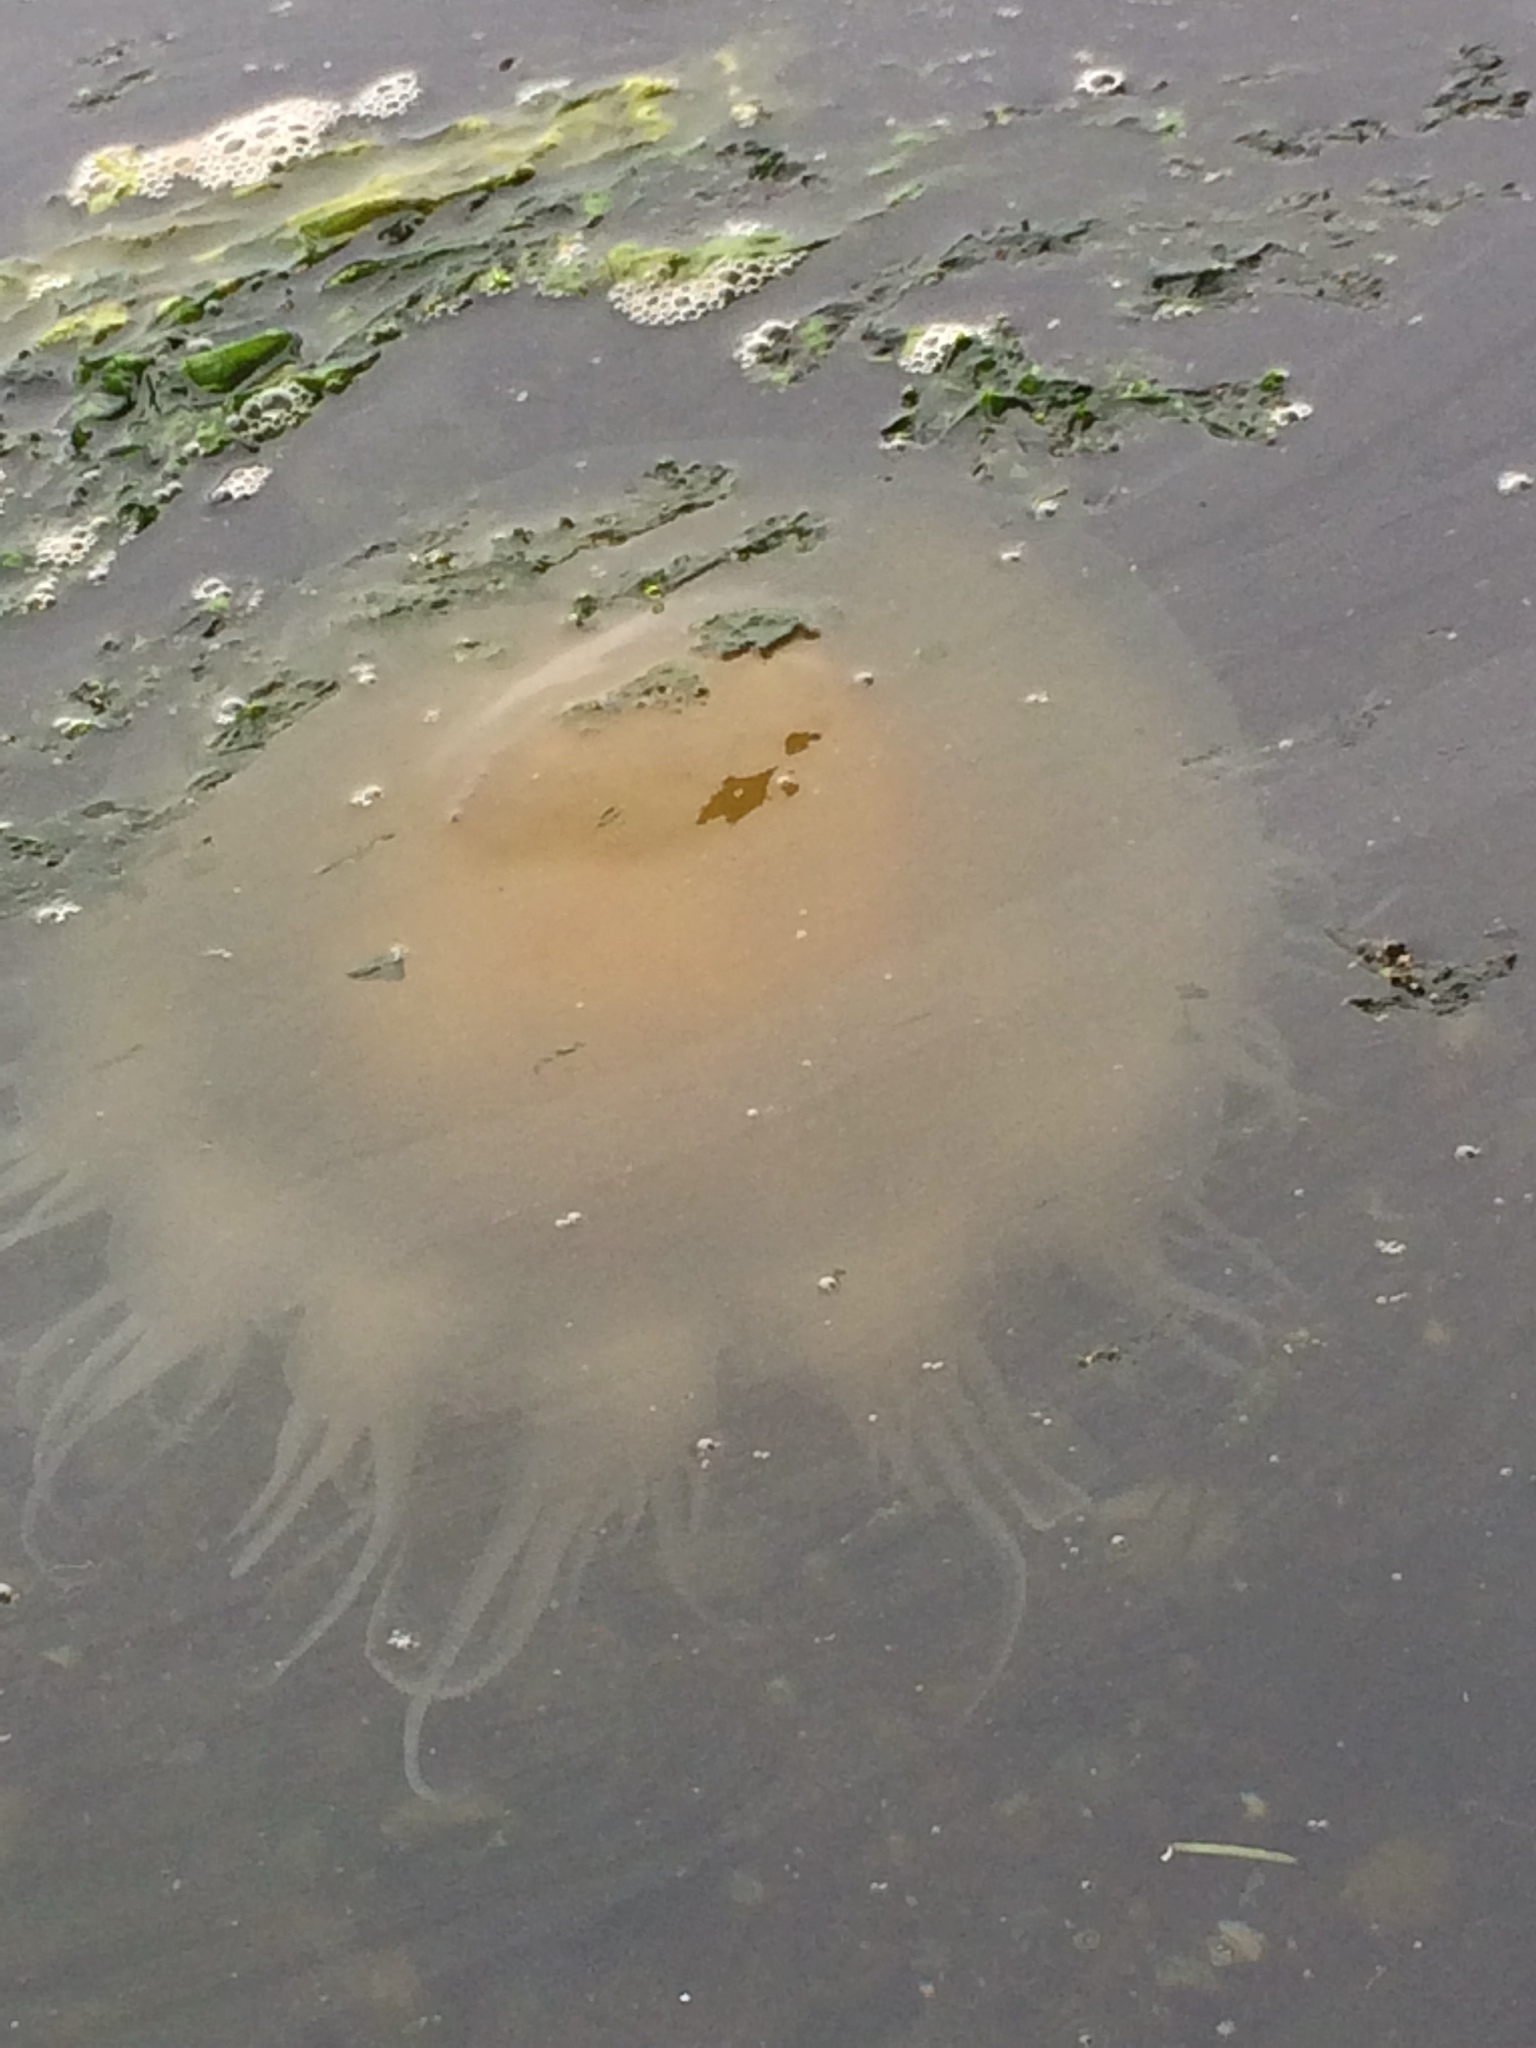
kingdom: Animalia
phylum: Cnidaria
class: Scyphozoa
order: Semaeostomeae
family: Phacellophoridae
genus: Phacellophora
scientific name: Phacellophora camtschatica
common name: Fried-egg jellyfish
